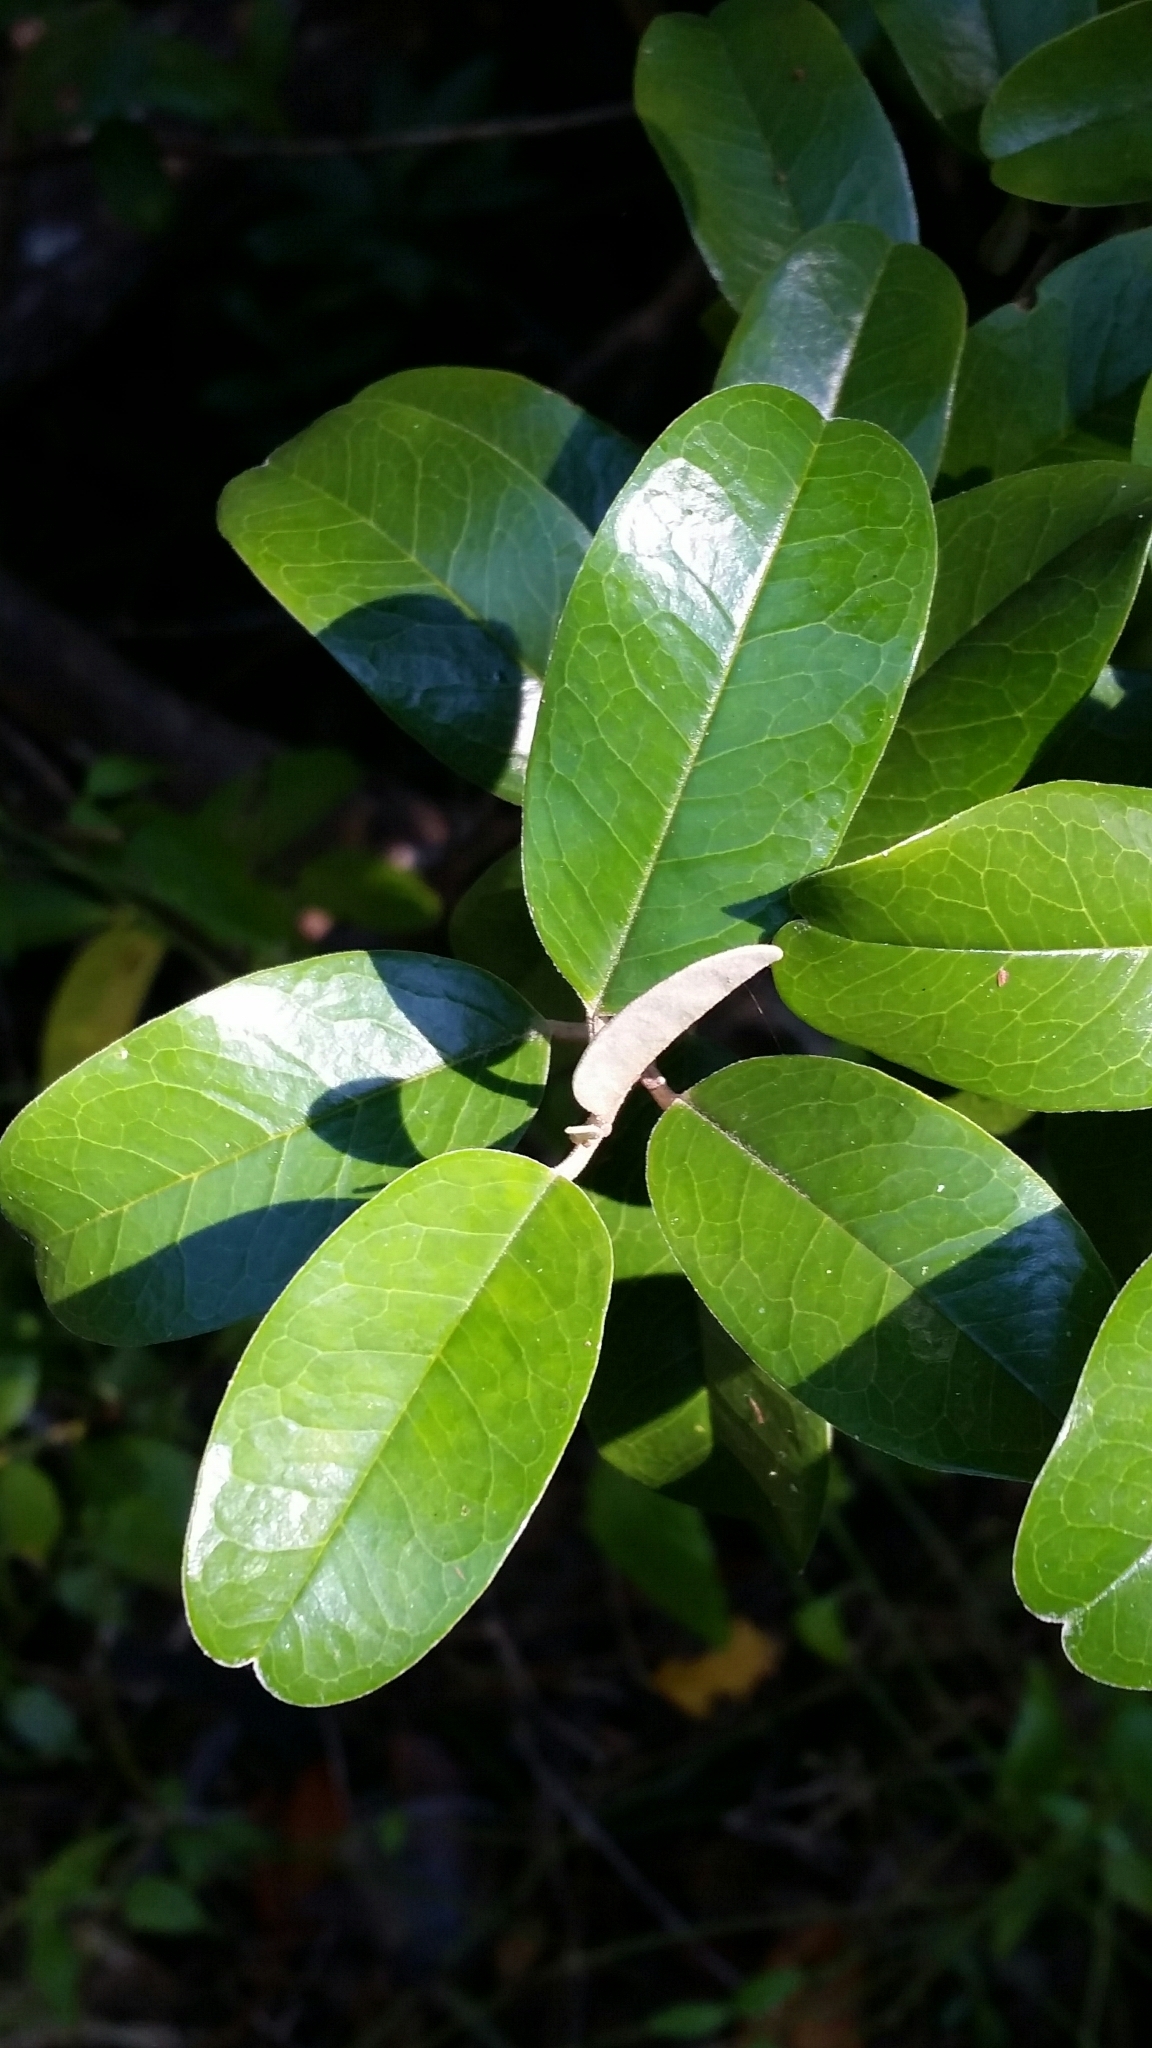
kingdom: Plantae
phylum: Tracheophyta
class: Magnoliopsida
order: Brassicales
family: Capparaceae
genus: Quadrella
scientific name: Quadrella cynophallophora
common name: Black willow
